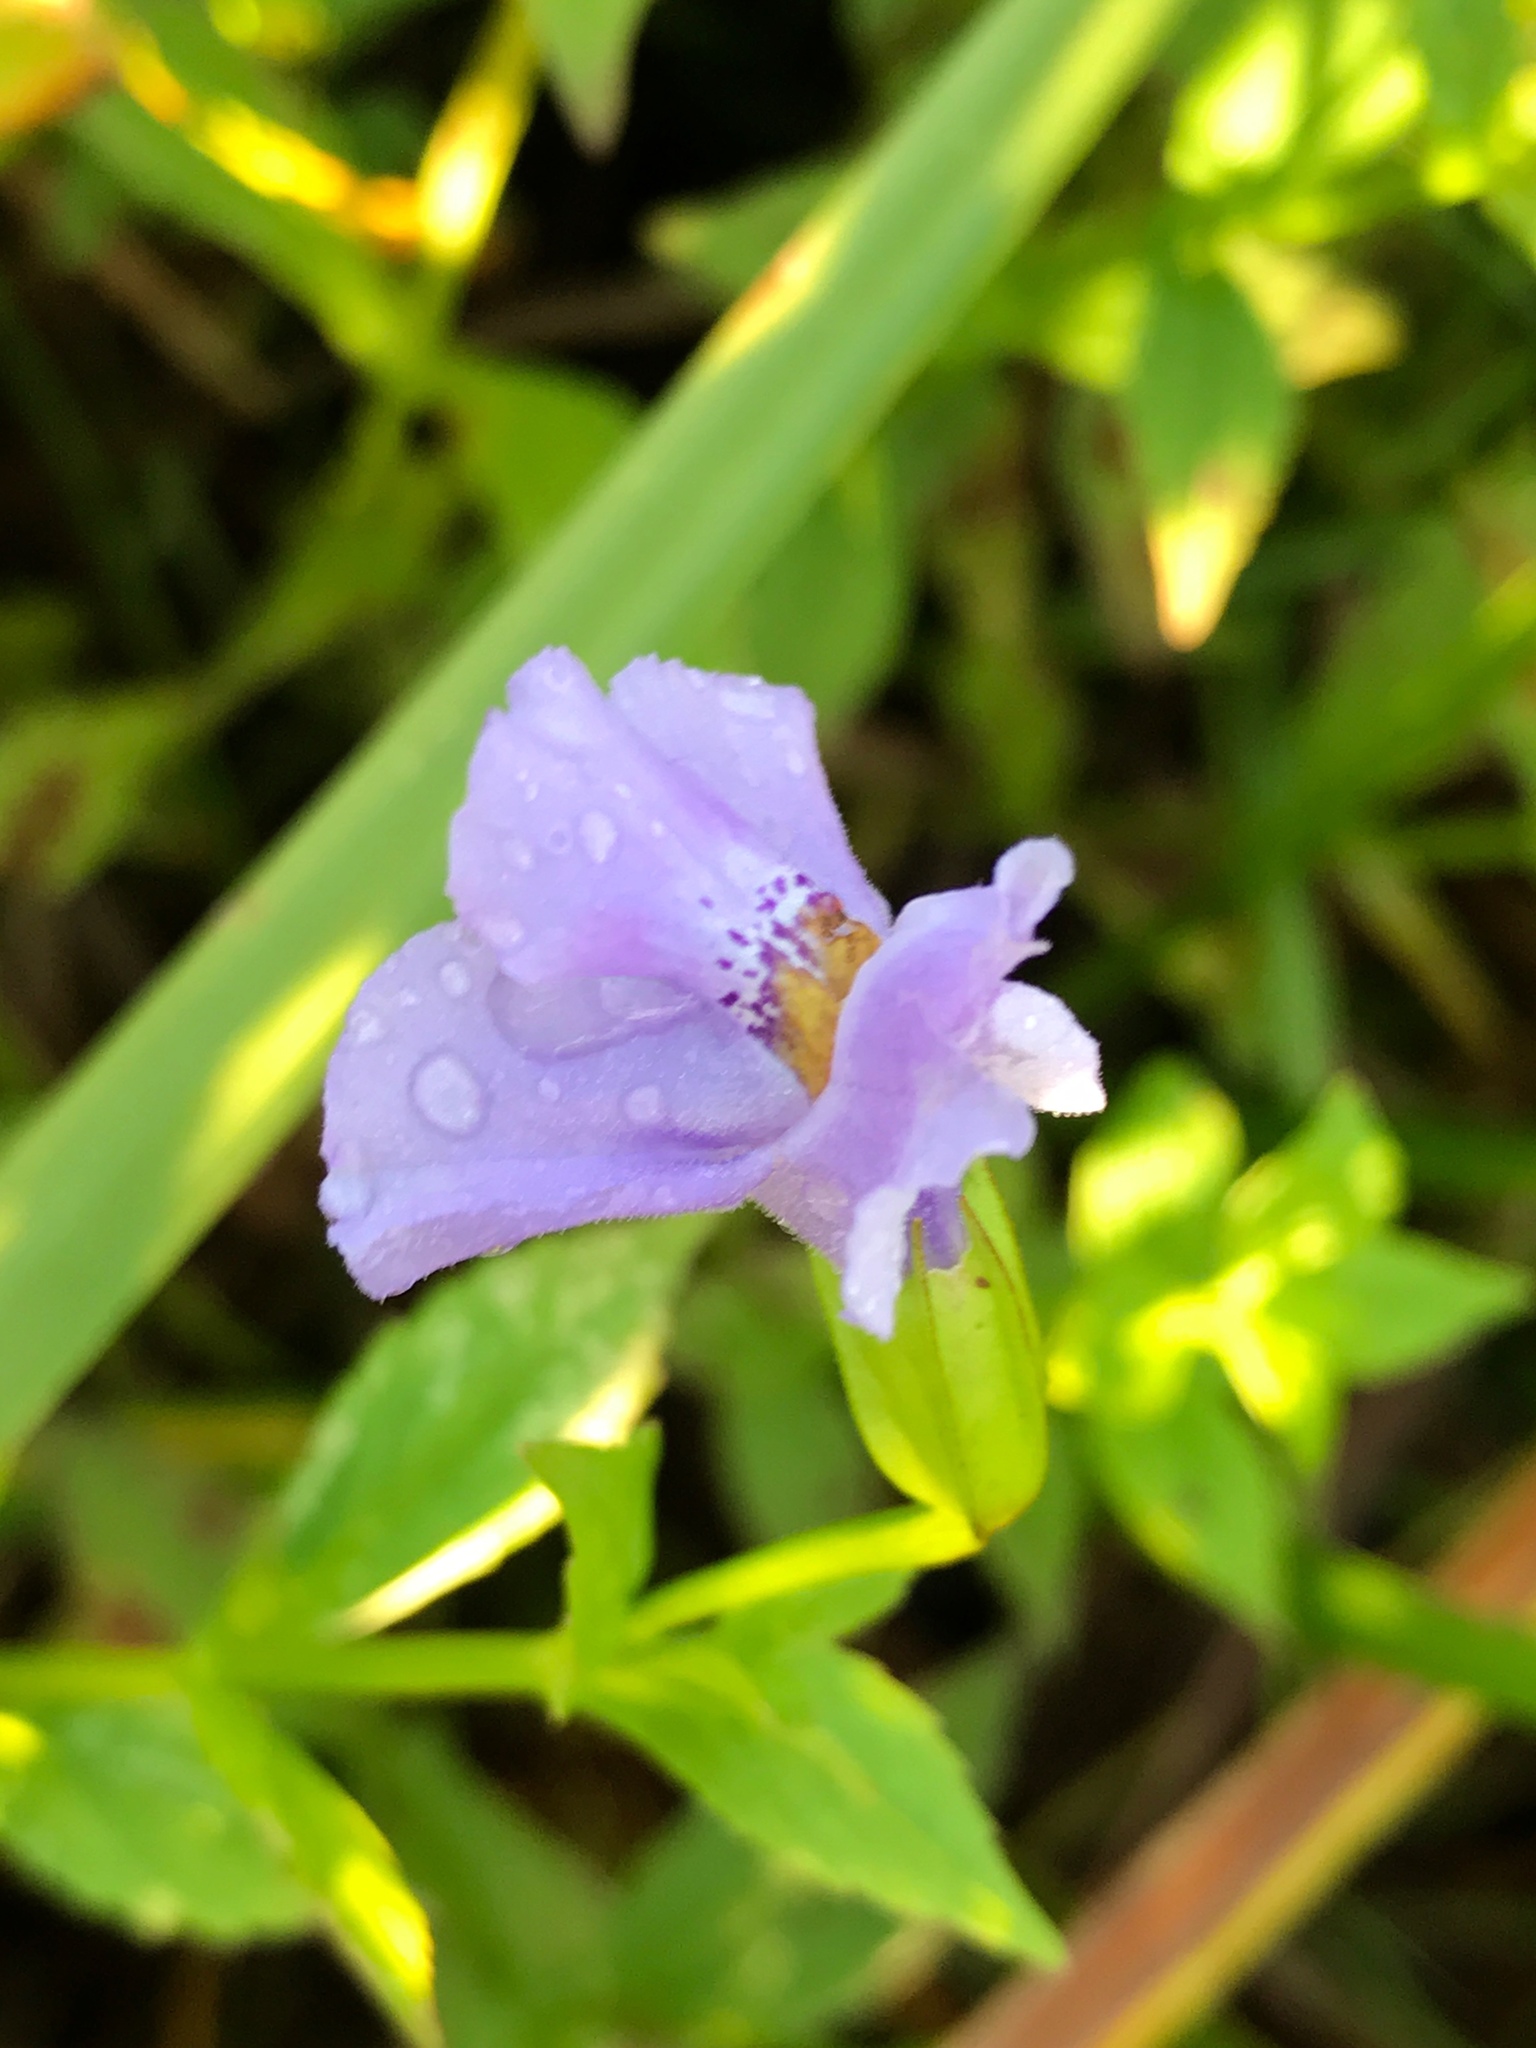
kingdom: Plantae
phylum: Tracheophyta
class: Magnoliopsida
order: Lamiales
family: Phrymaceae
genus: Mimulus
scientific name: Mimulus ringens
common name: Allegheny monkeyflower
